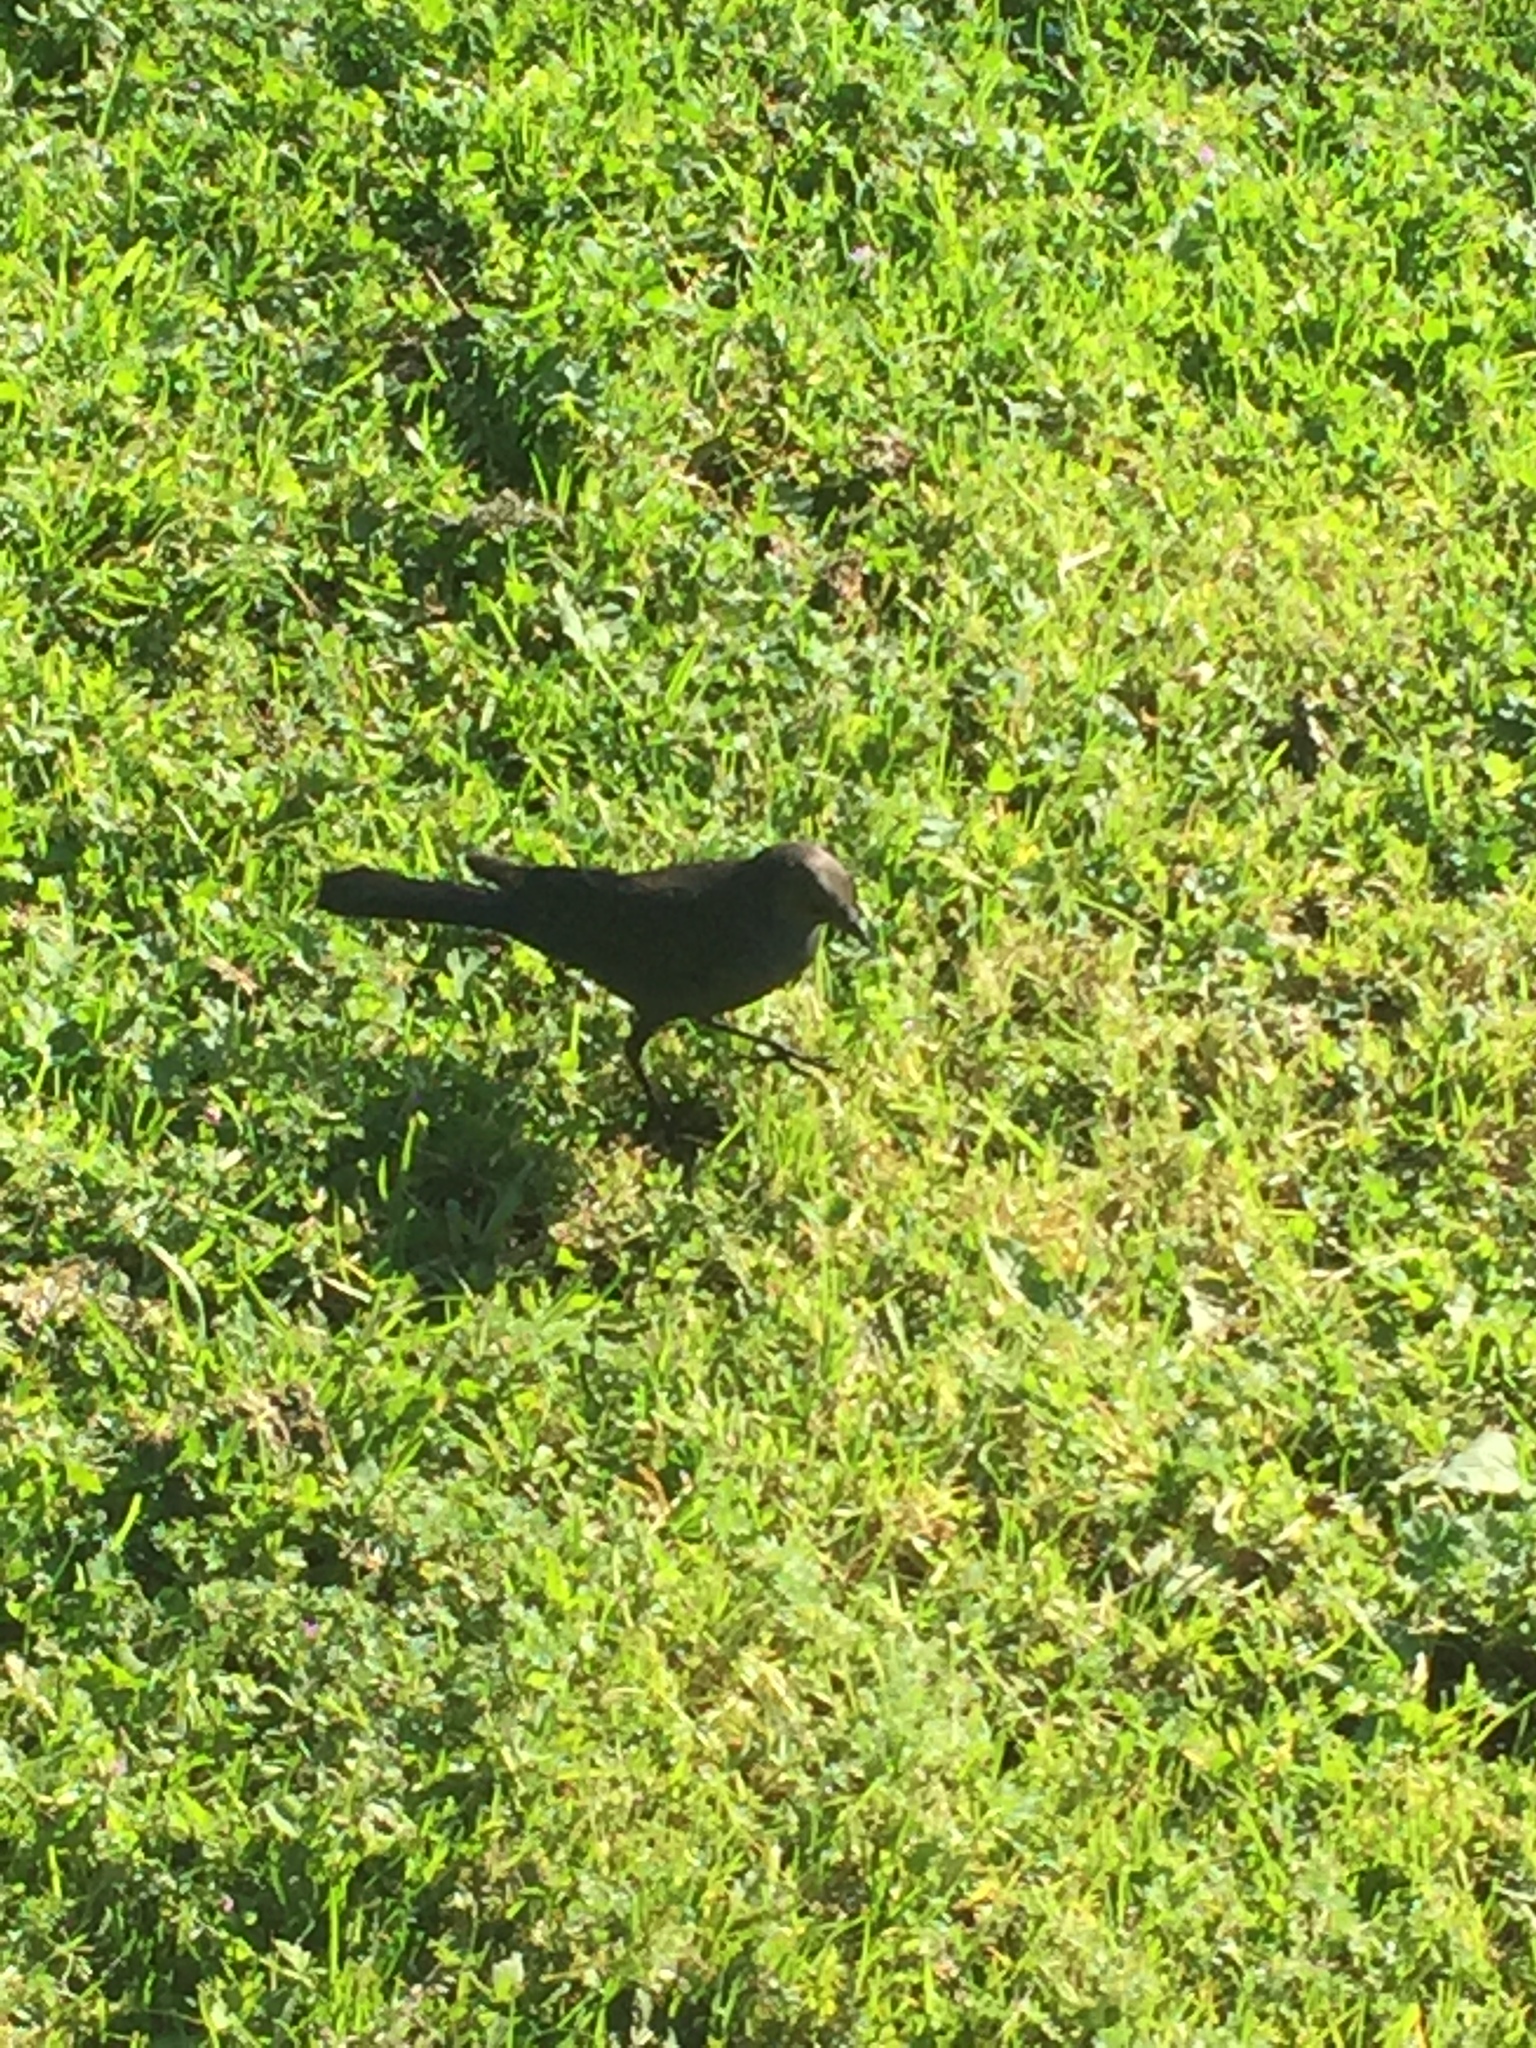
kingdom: Animalia
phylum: Chordata
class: Aves
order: Passeriformes
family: Icteridae
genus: Euphagus
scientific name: Euphagus cyanocephalus
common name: Brewer's blackbird
